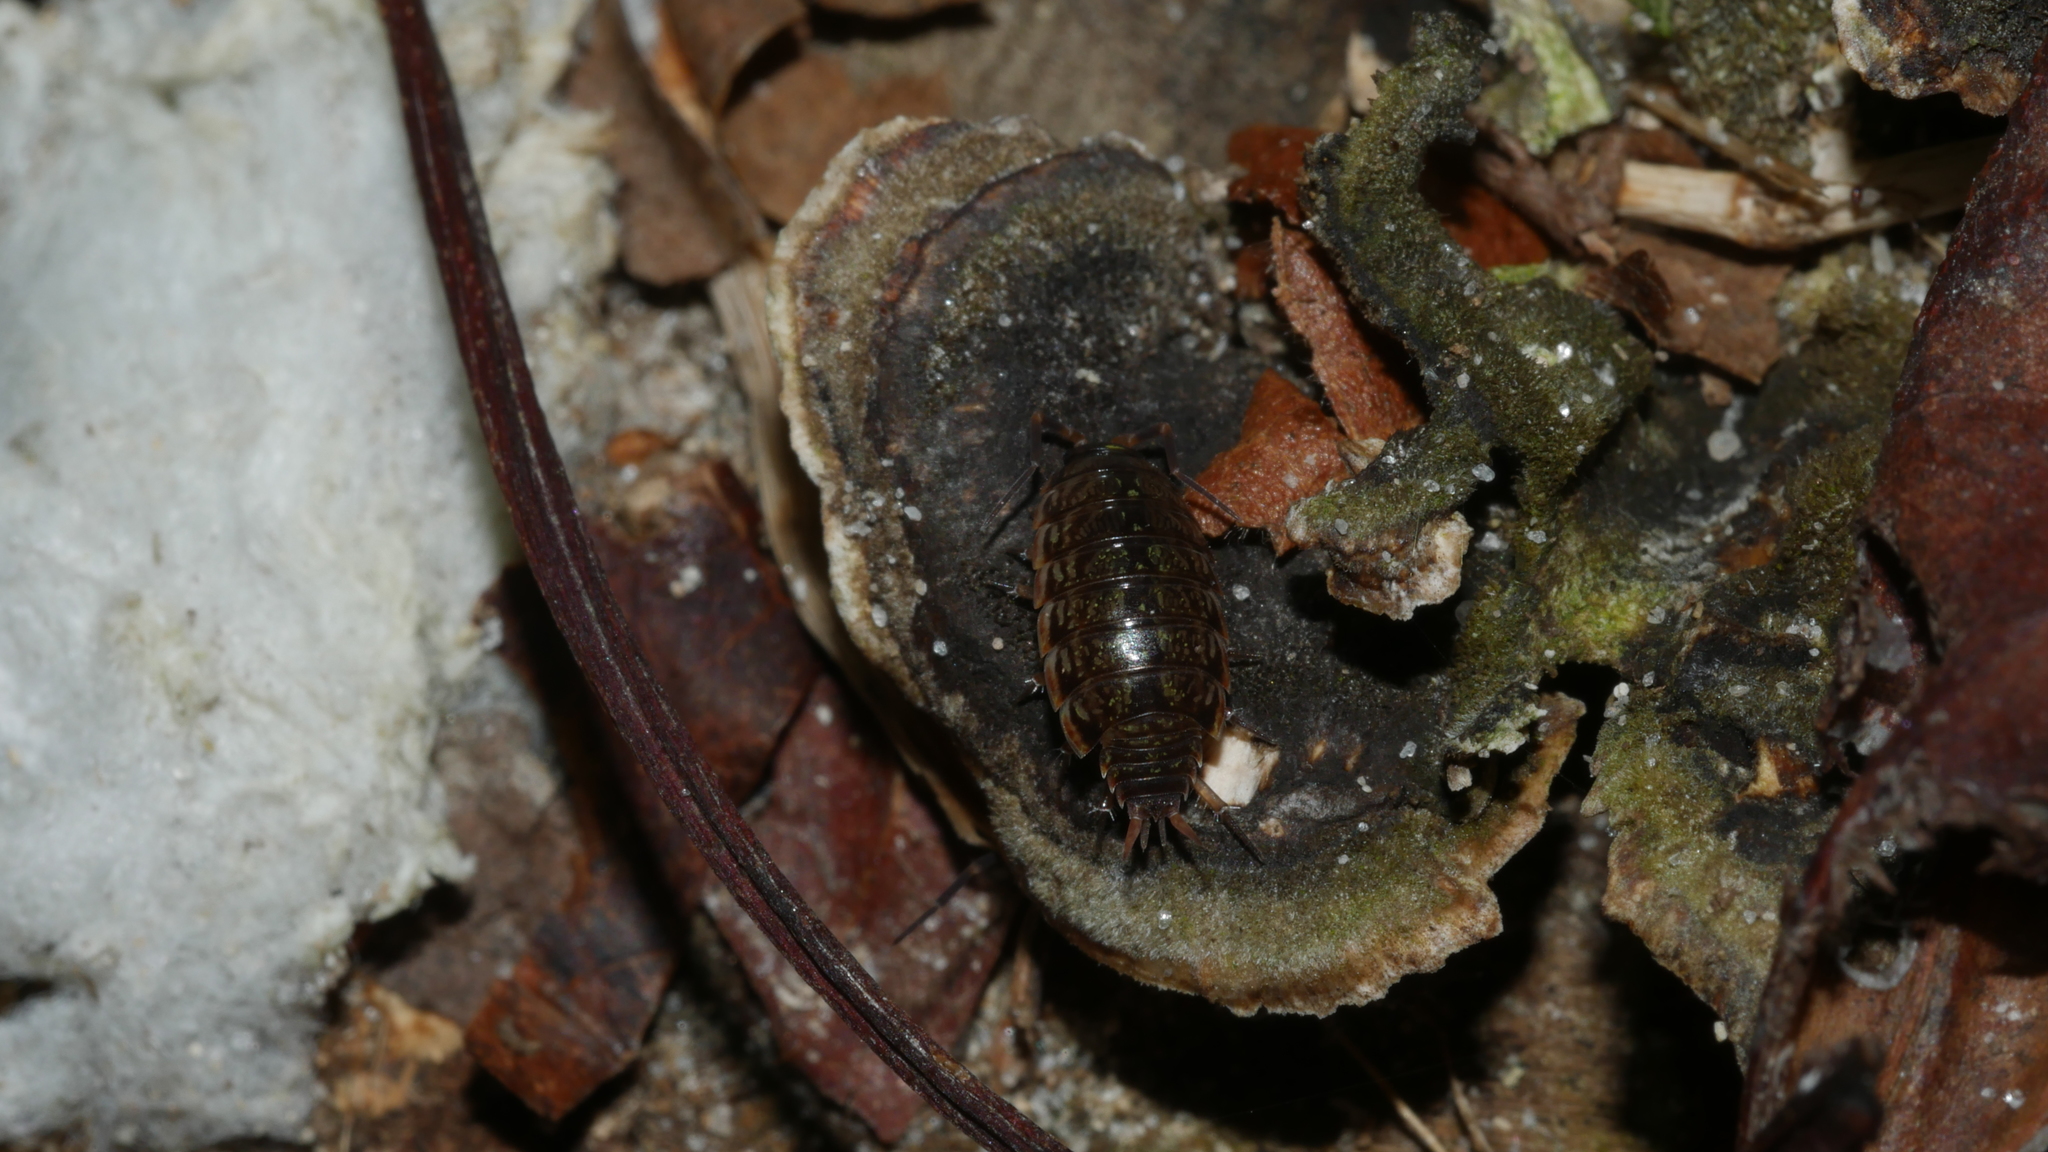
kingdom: Animalia
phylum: Arthropoda
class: Malacostraca
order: Isopoda
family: Philosciidae
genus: Philoscia
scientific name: Philoscia muscorum
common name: Common striped woodlouse
